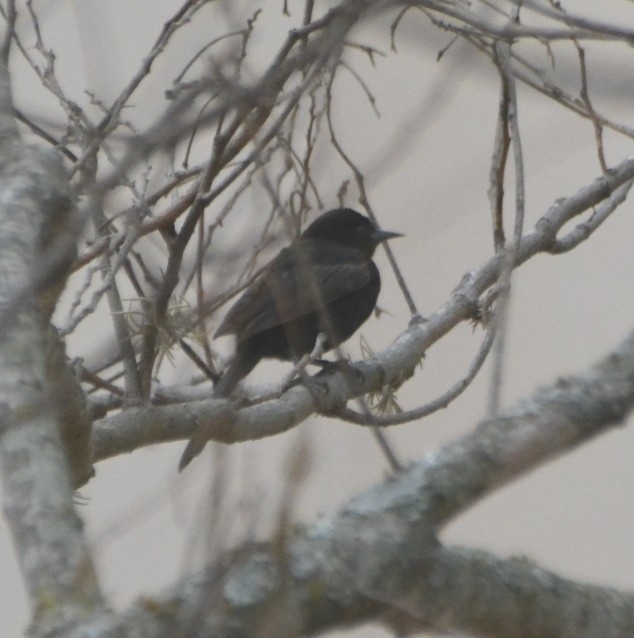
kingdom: Animalia
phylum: Chordata
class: Aves
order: Passeriformes
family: Icteridae
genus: Icterus
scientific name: Icterus cayanensis
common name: Epaulet oriole
